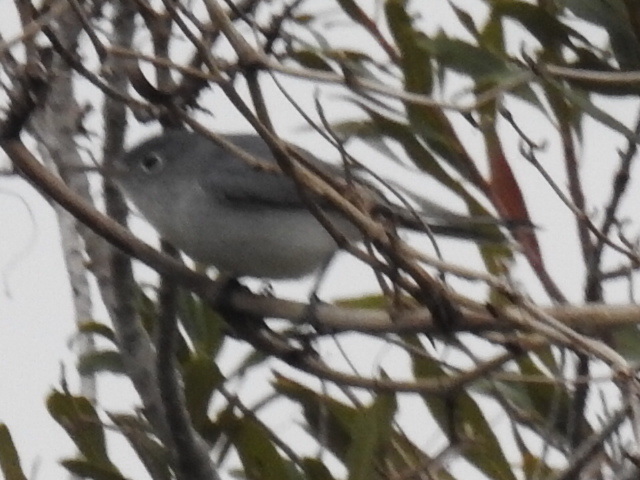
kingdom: Animalia
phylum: Chordata
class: Aves
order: Passeriformes
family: Polioptilidae
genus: Polioptila
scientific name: Polioptila caerulea
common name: Blue-gray gnatcatcher
